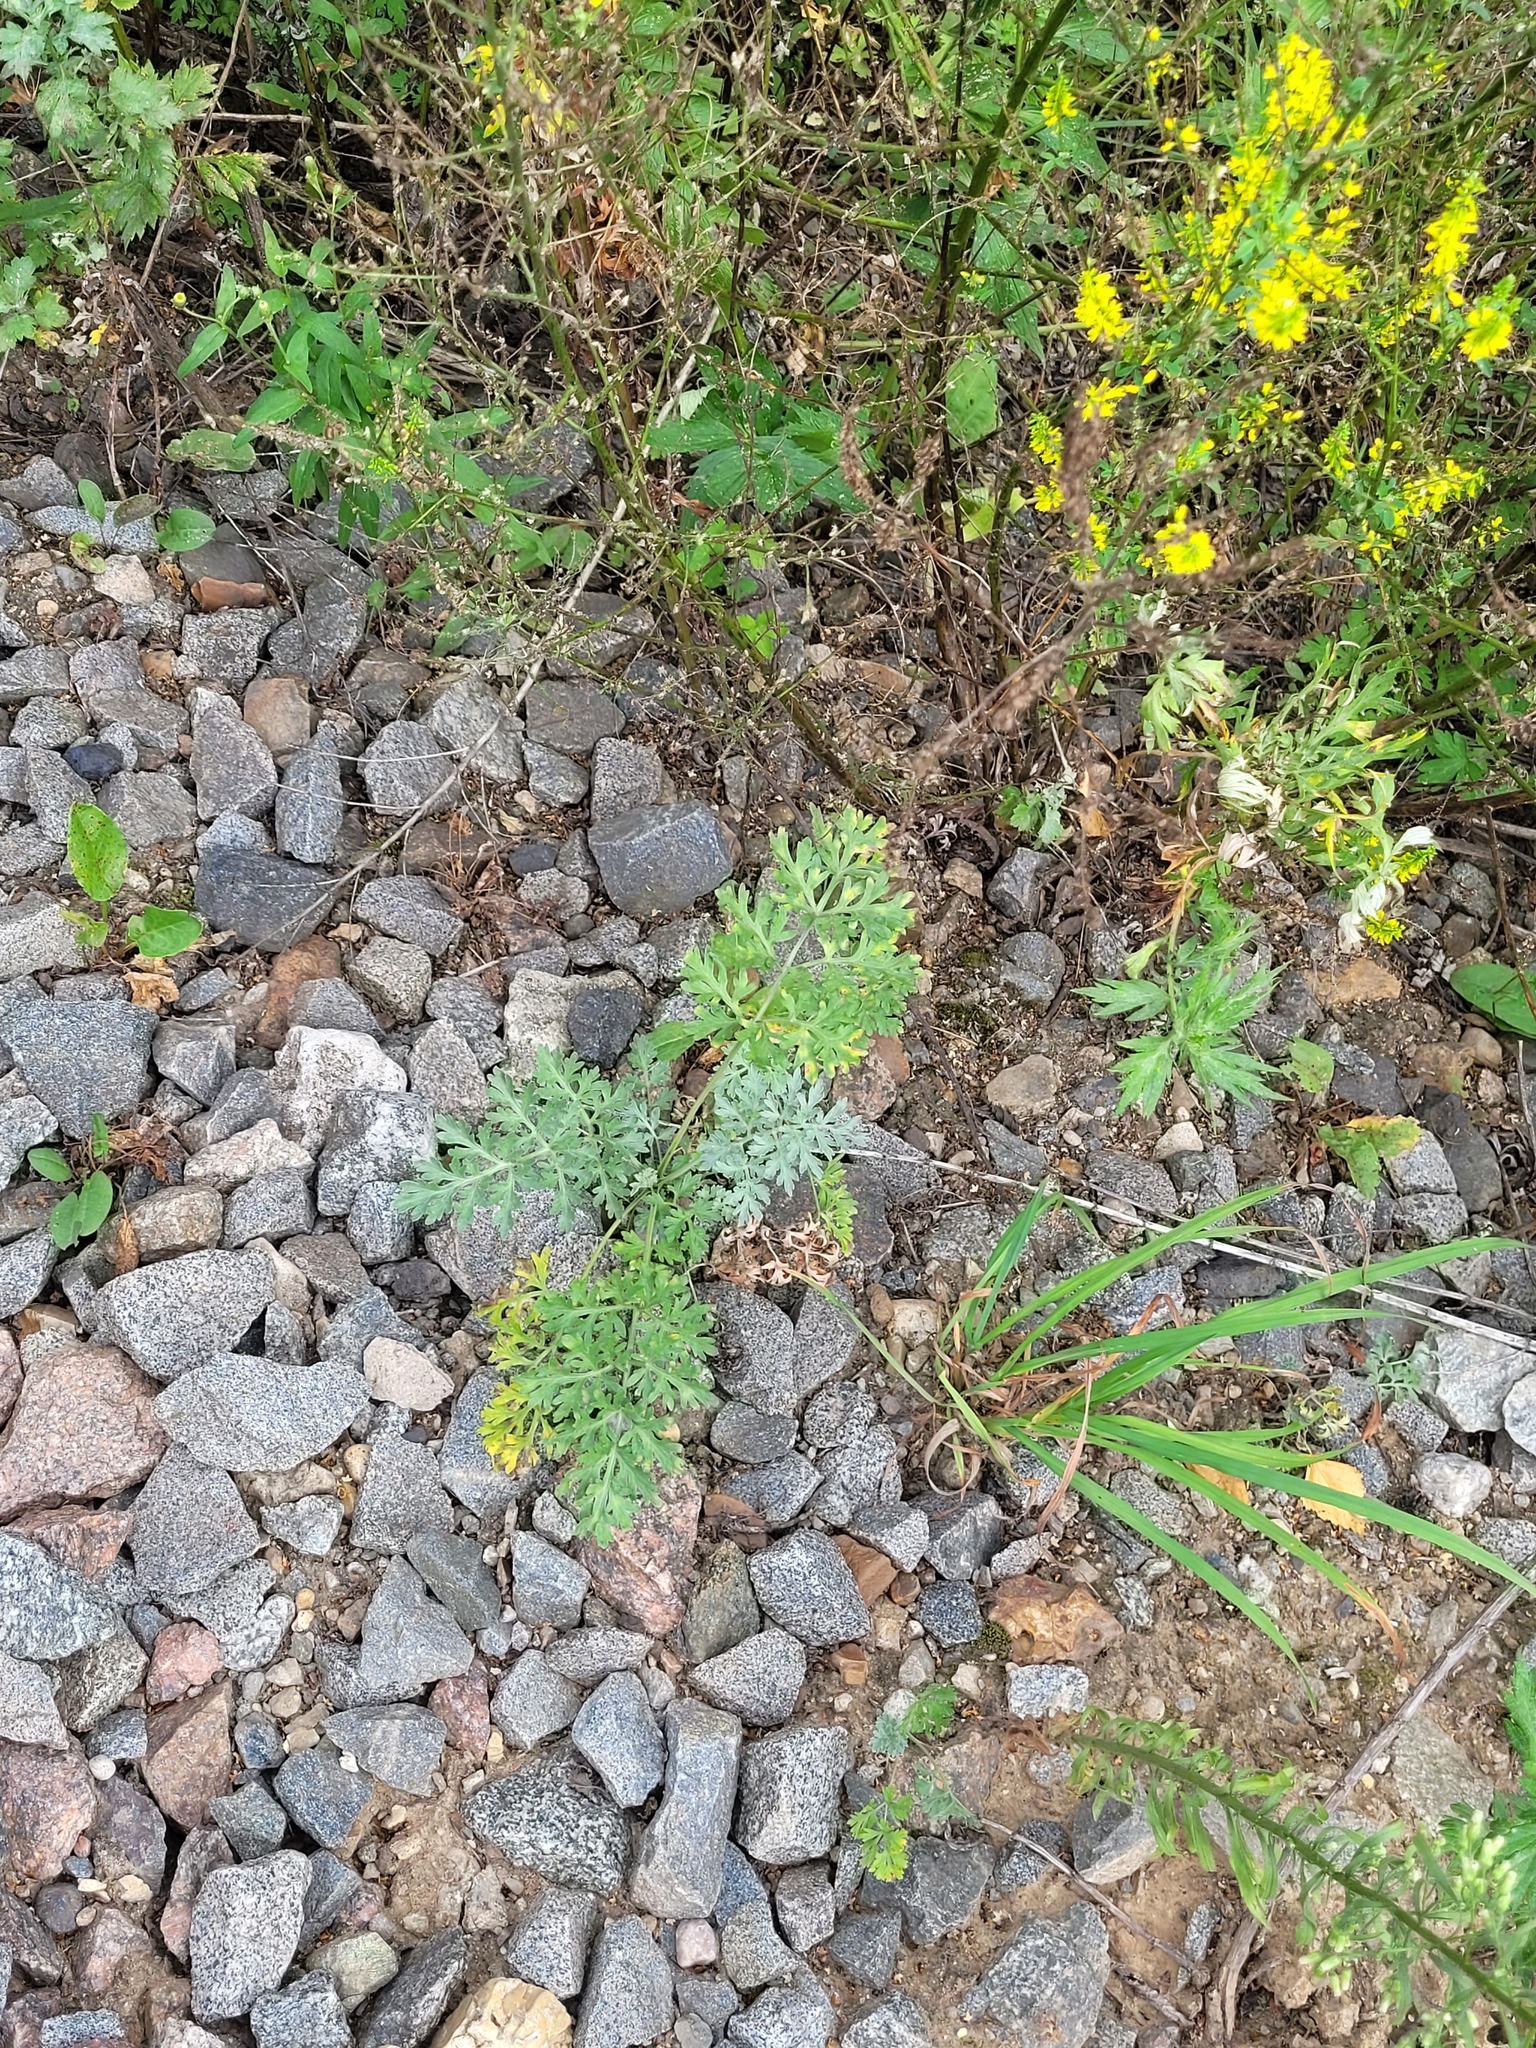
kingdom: Plantae
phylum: Tracheophyta
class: Magnoliopsida
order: Asterales
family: Asteraceae
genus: Artemisia
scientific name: Artemisia absinthium
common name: Wormwood
